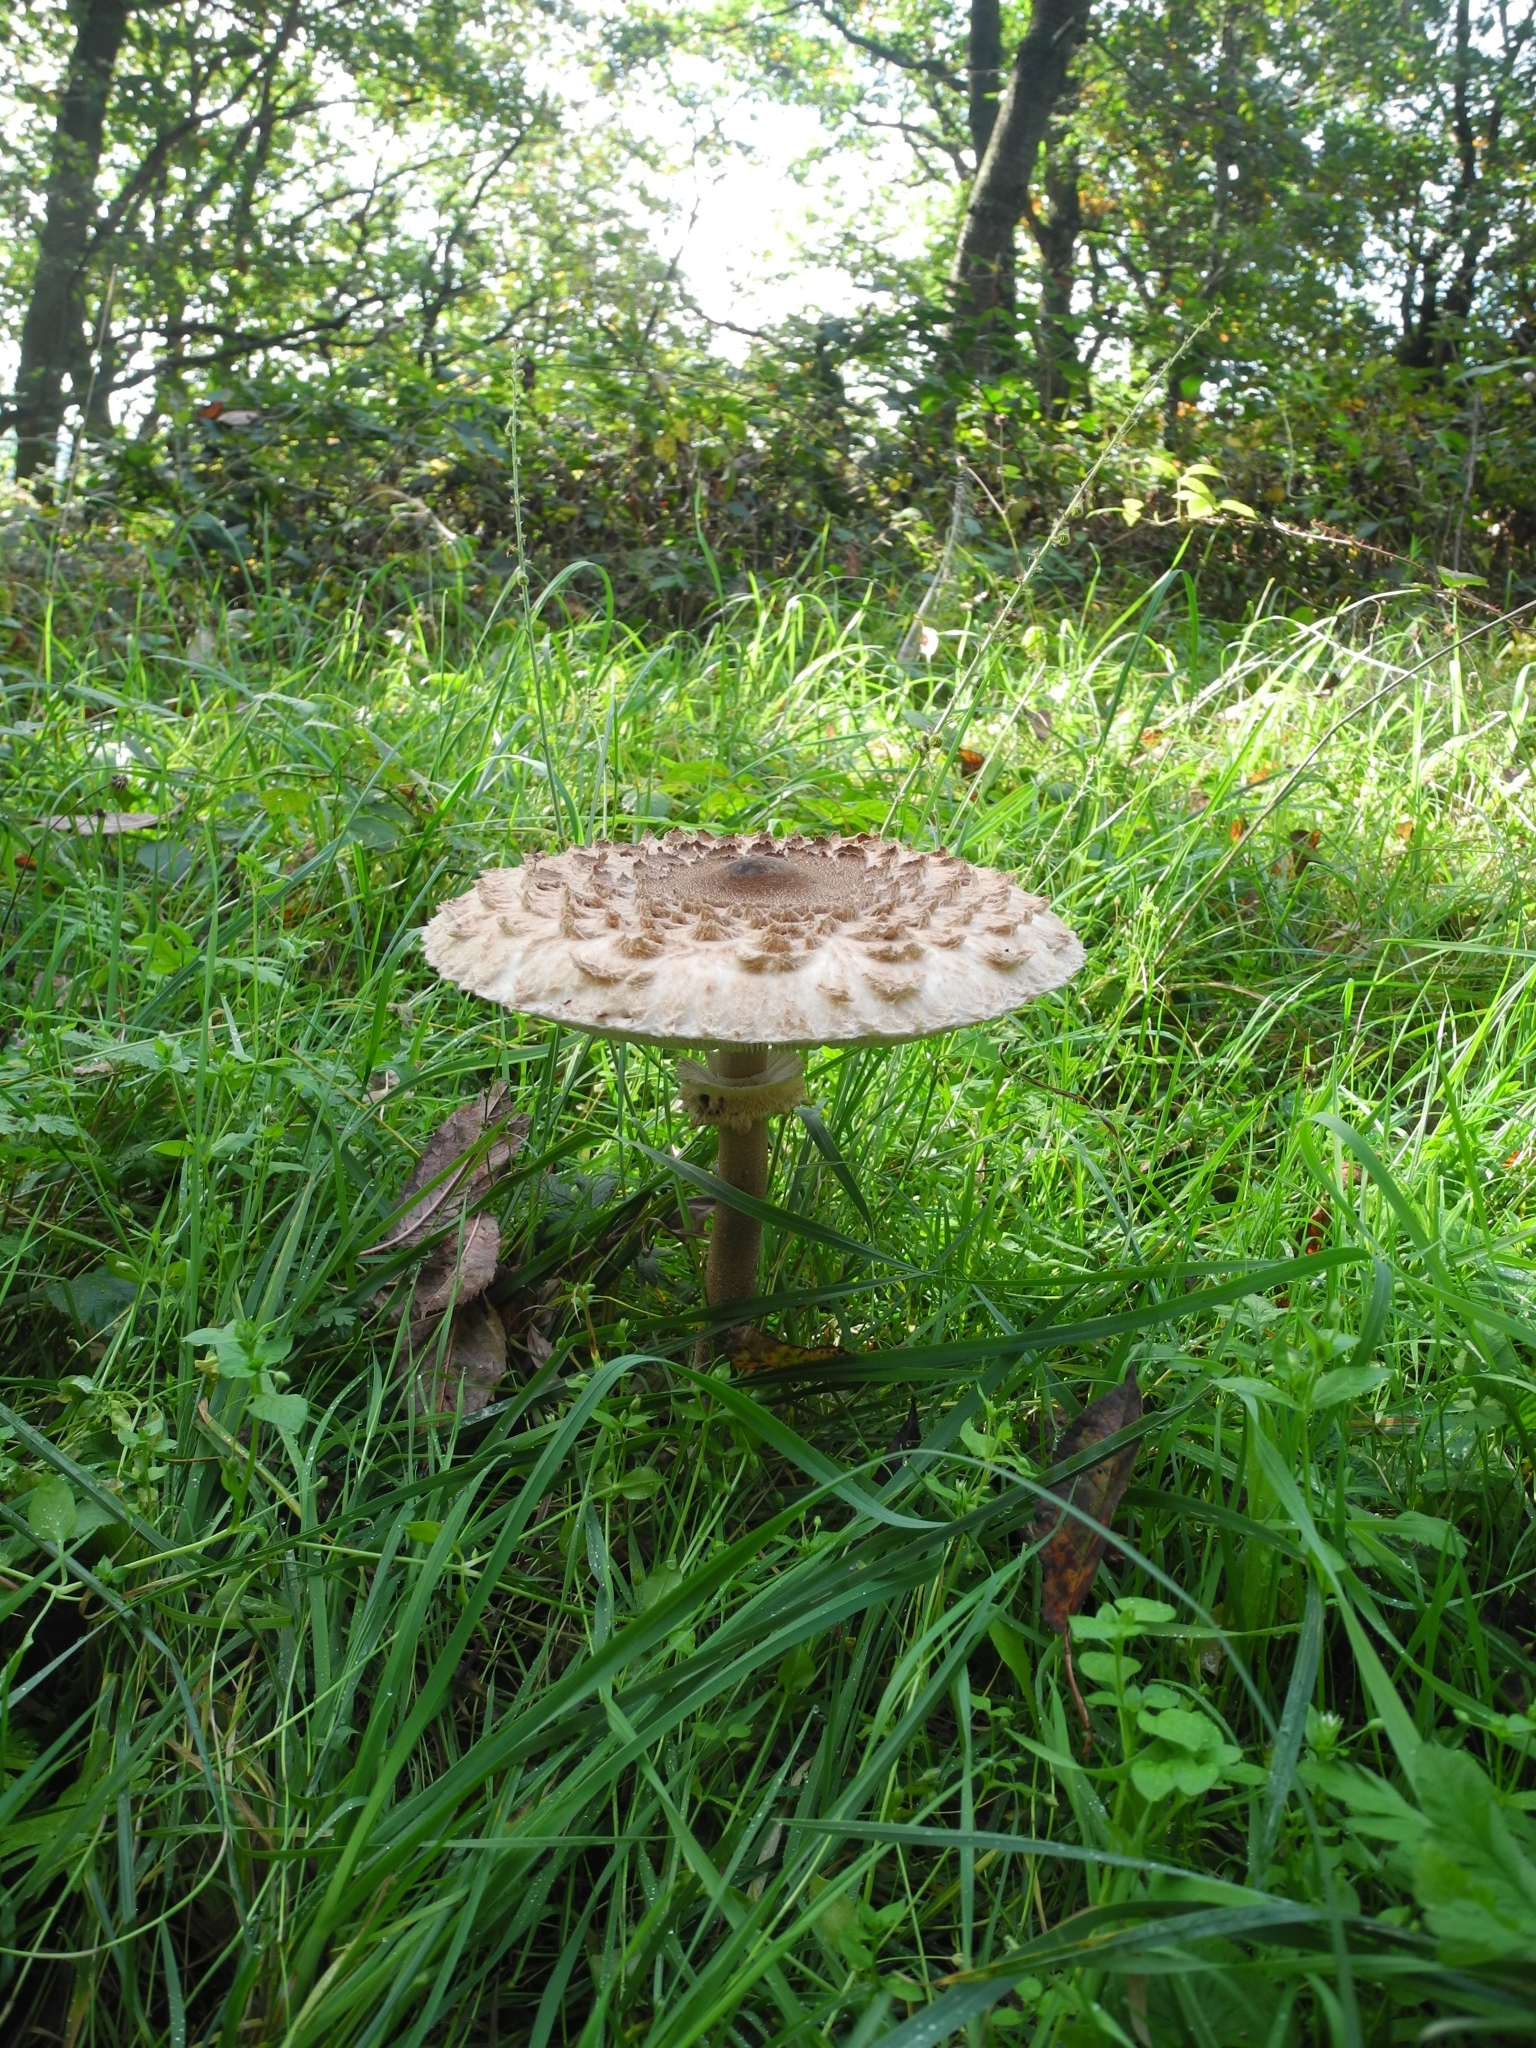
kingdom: Fungi
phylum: Basidiomycota
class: Agaricomycetes
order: Agaricales
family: Agaricaceae
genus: Macrolepiota
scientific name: Macrolepiota procera
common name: Parasol
